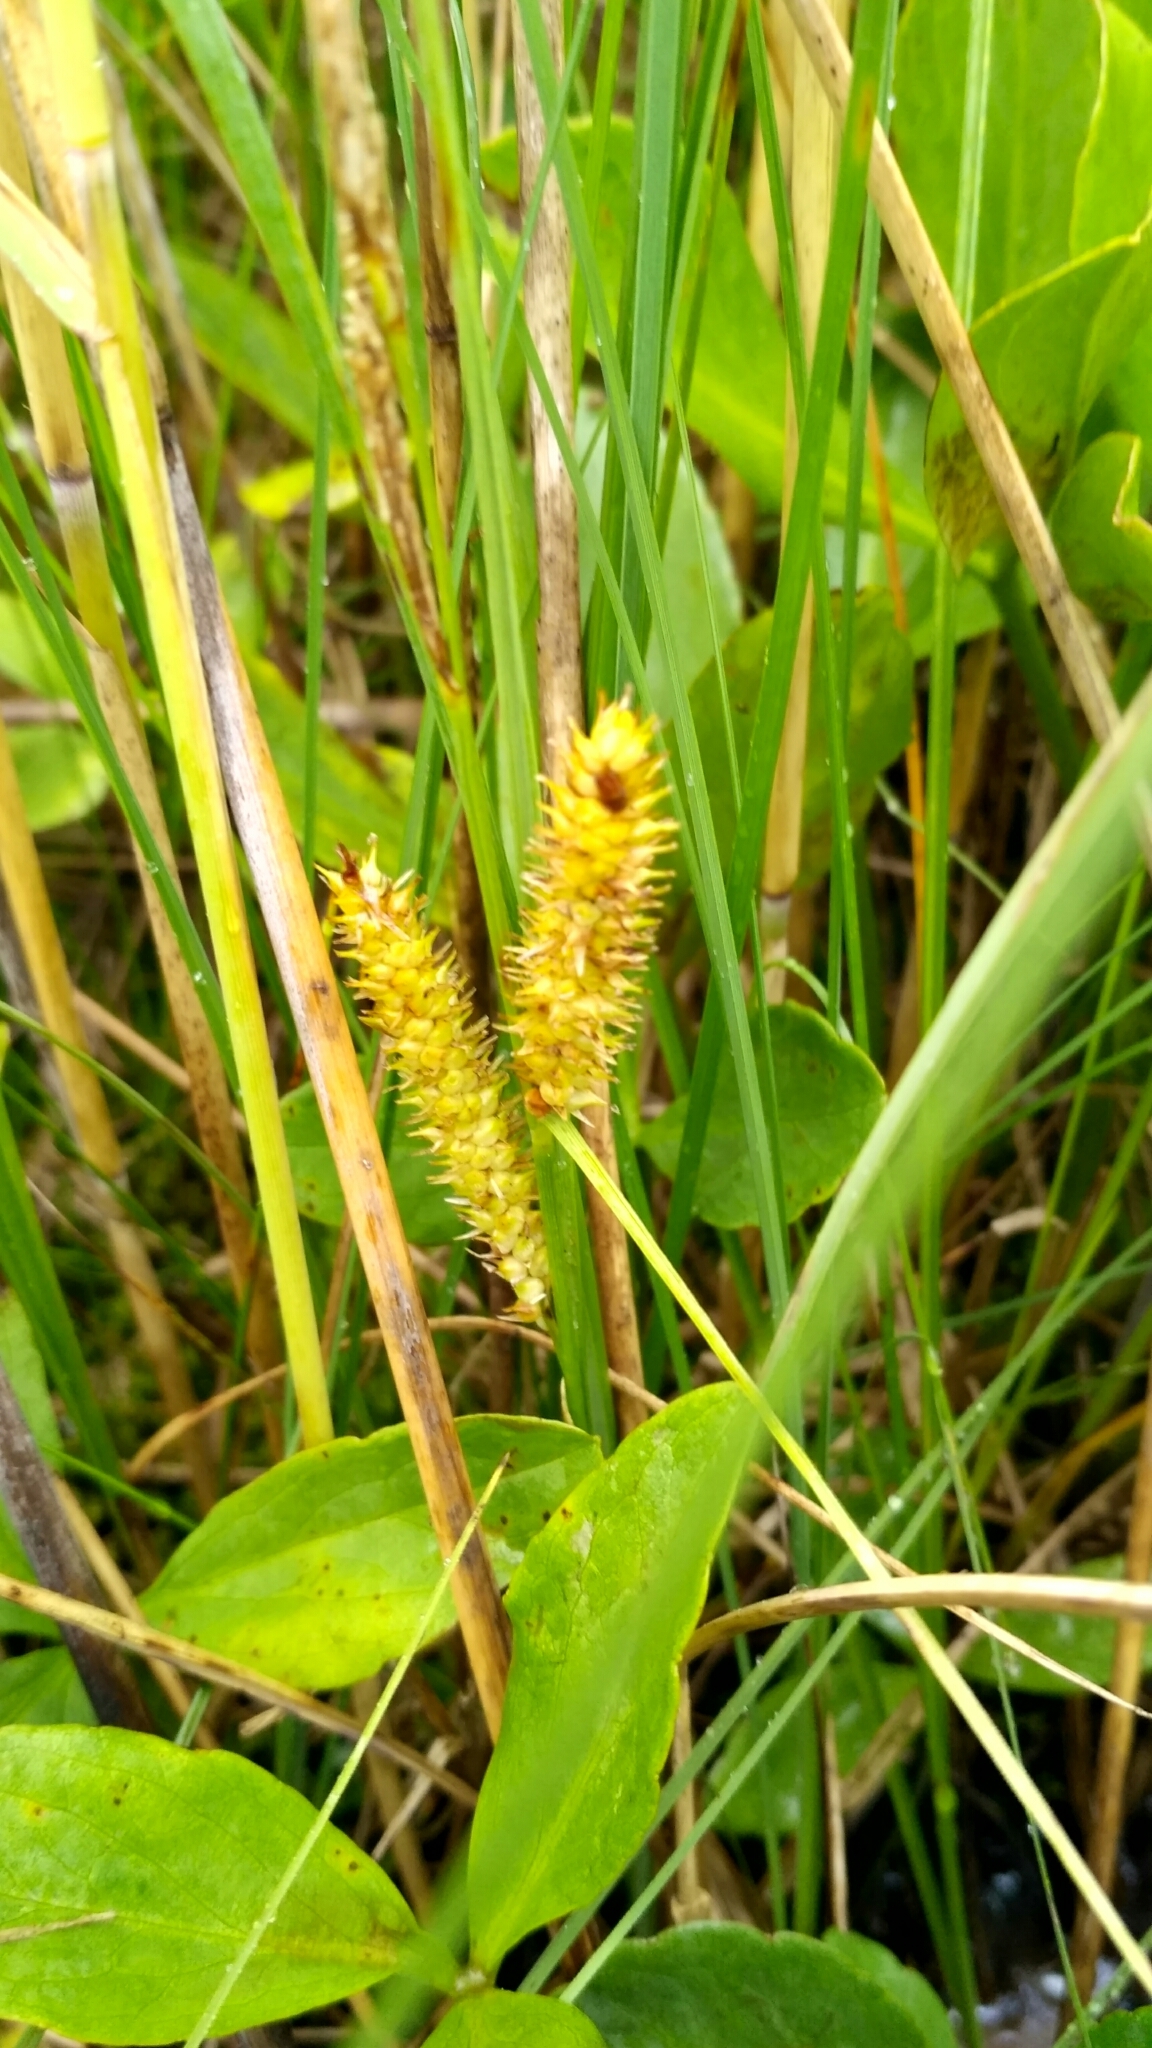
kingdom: Plantae
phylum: Tracheophyta
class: Liliopsida
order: Poales
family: Cyperaceae
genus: Carex
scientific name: Carex rostrata
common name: Bottle sedge
